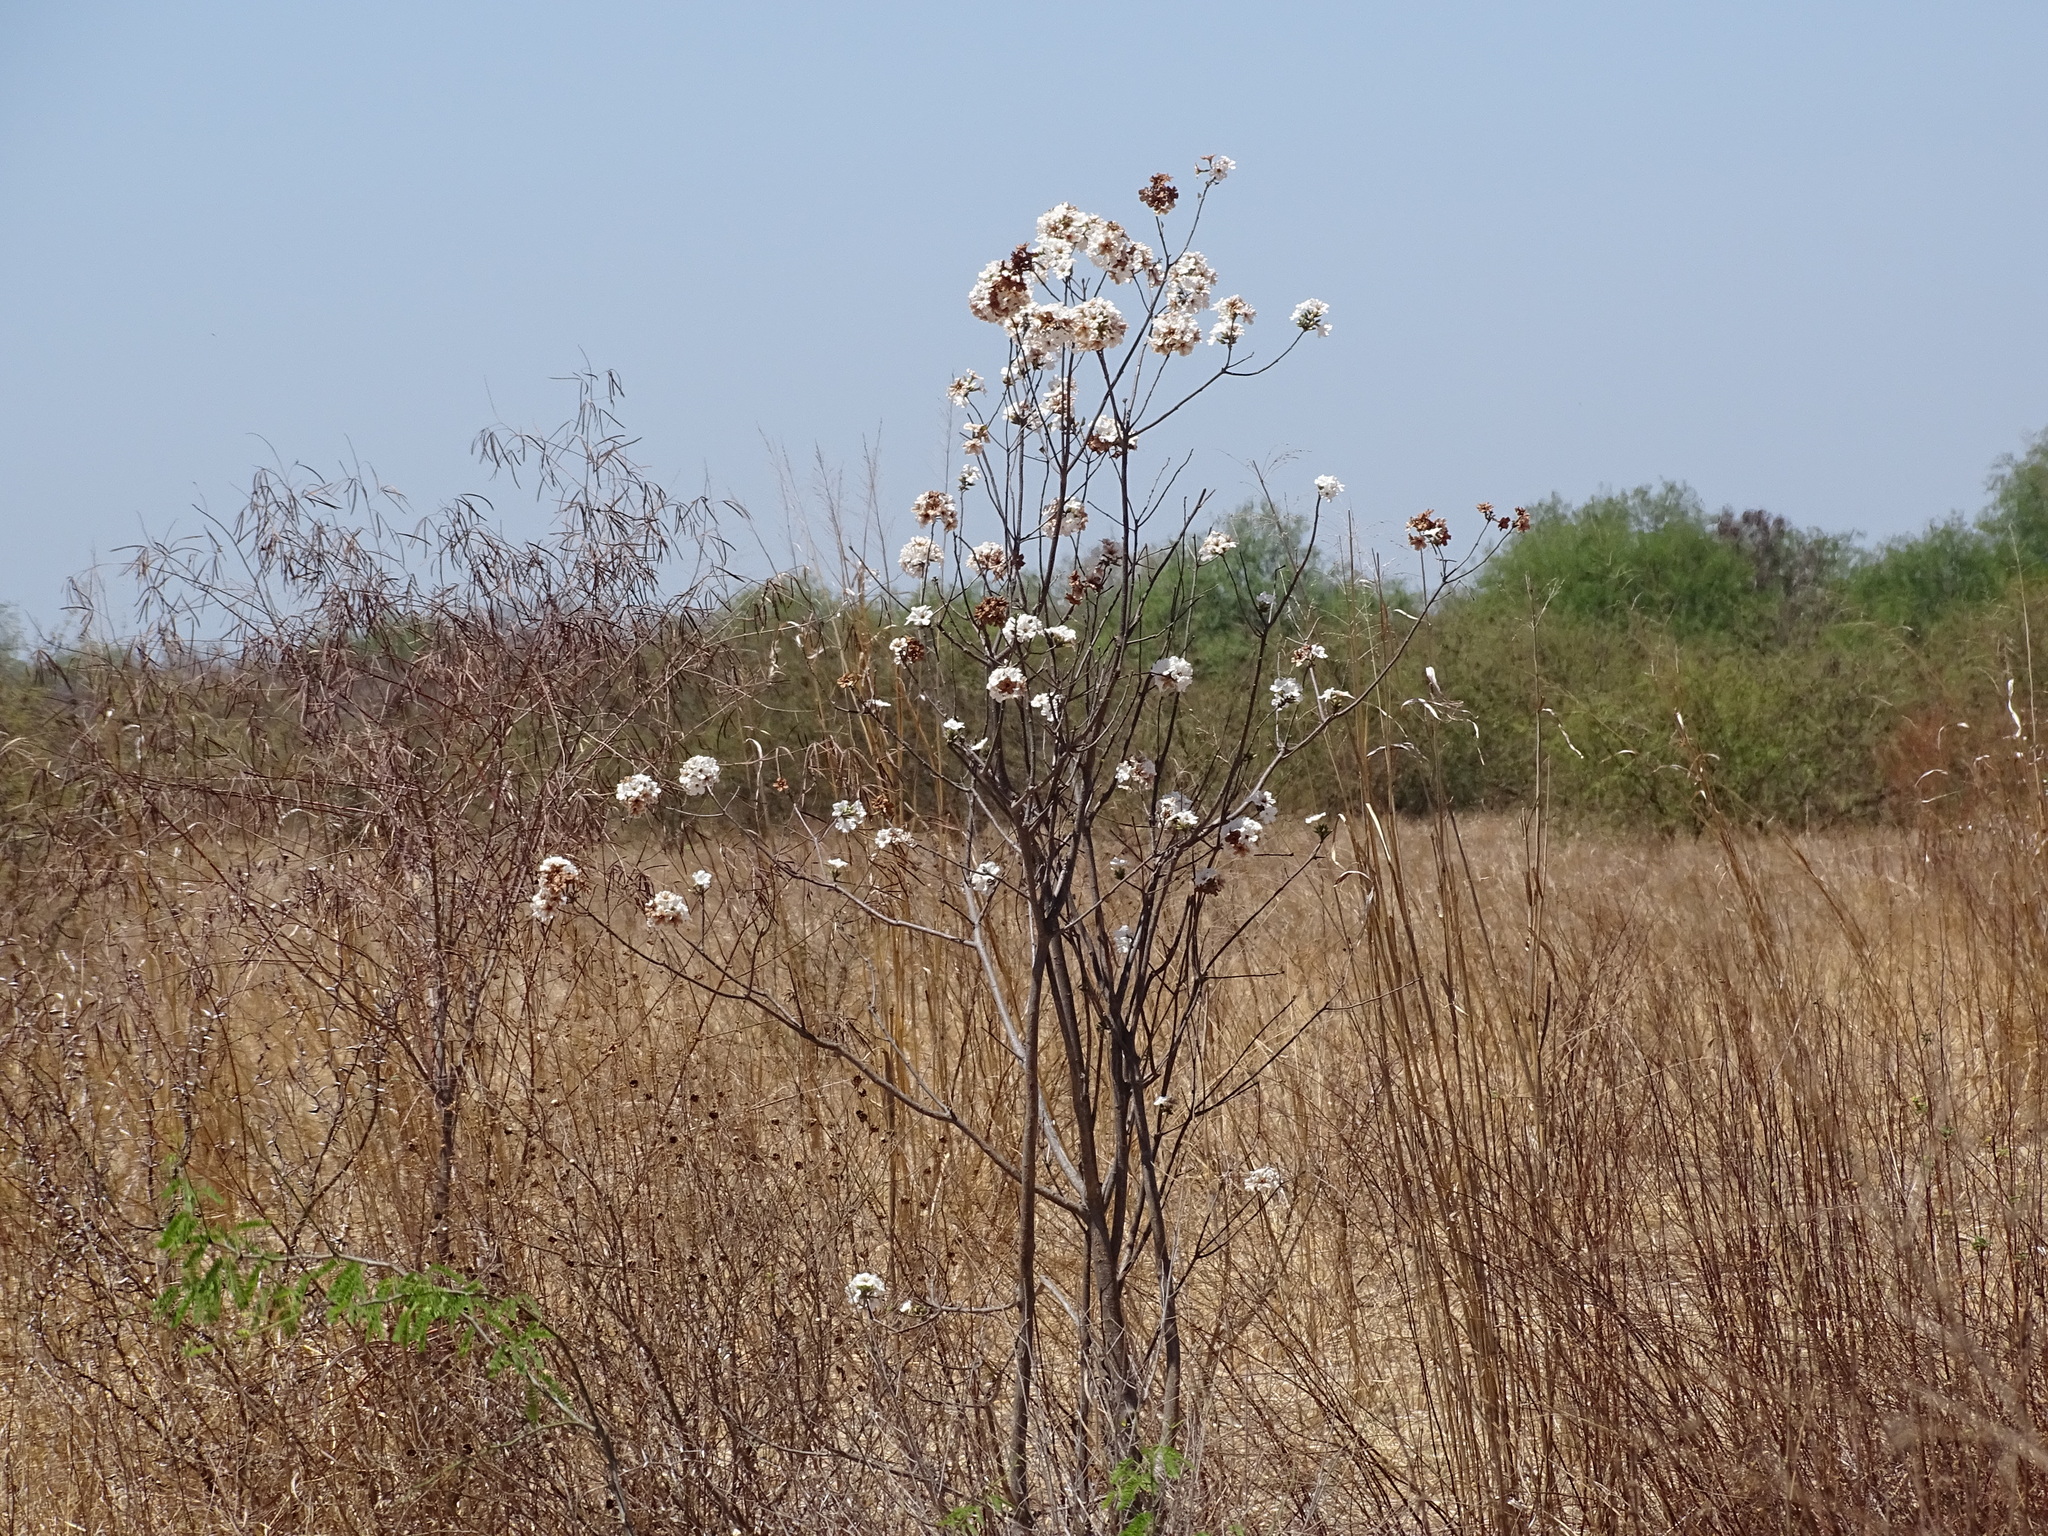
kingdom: Plantae
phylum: Tracheophyta
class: Magnoliopsida
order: Boraginales
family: Cordiaceae
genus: Cordia
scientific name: Cordia sonorae
